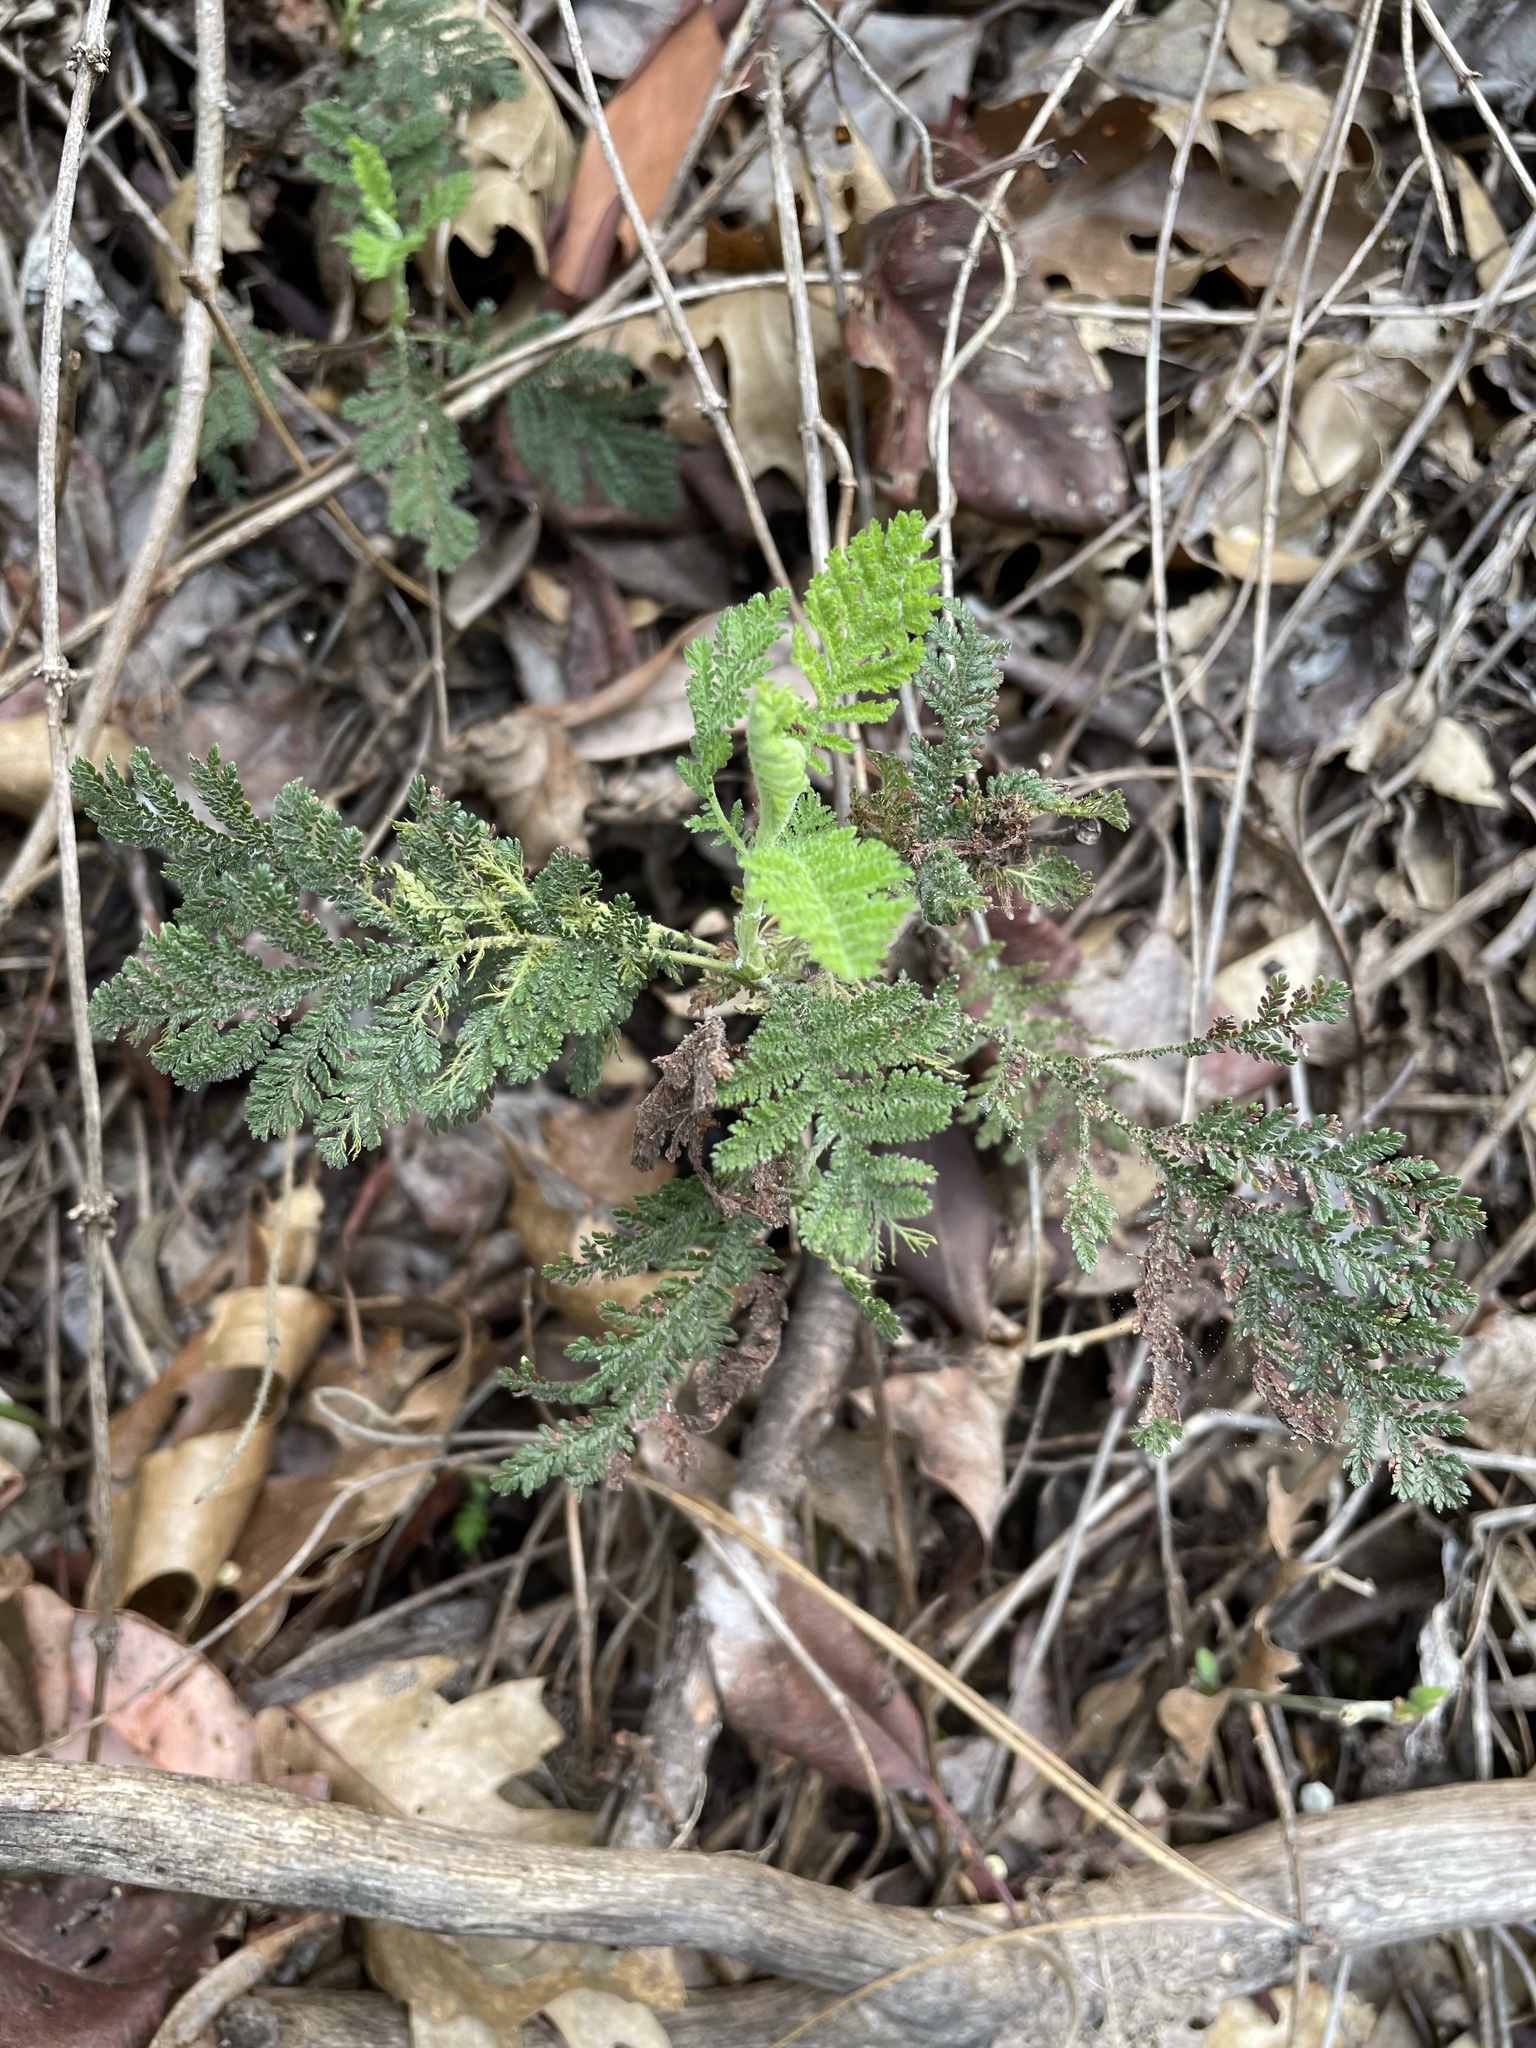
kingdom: Plantae
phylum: Tracheophyta
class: Magnoliopsida
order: Rosales
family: Rosaceae
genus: Chamaebatia
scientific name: Chamaebatia foliolosa
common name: Mountain misery
